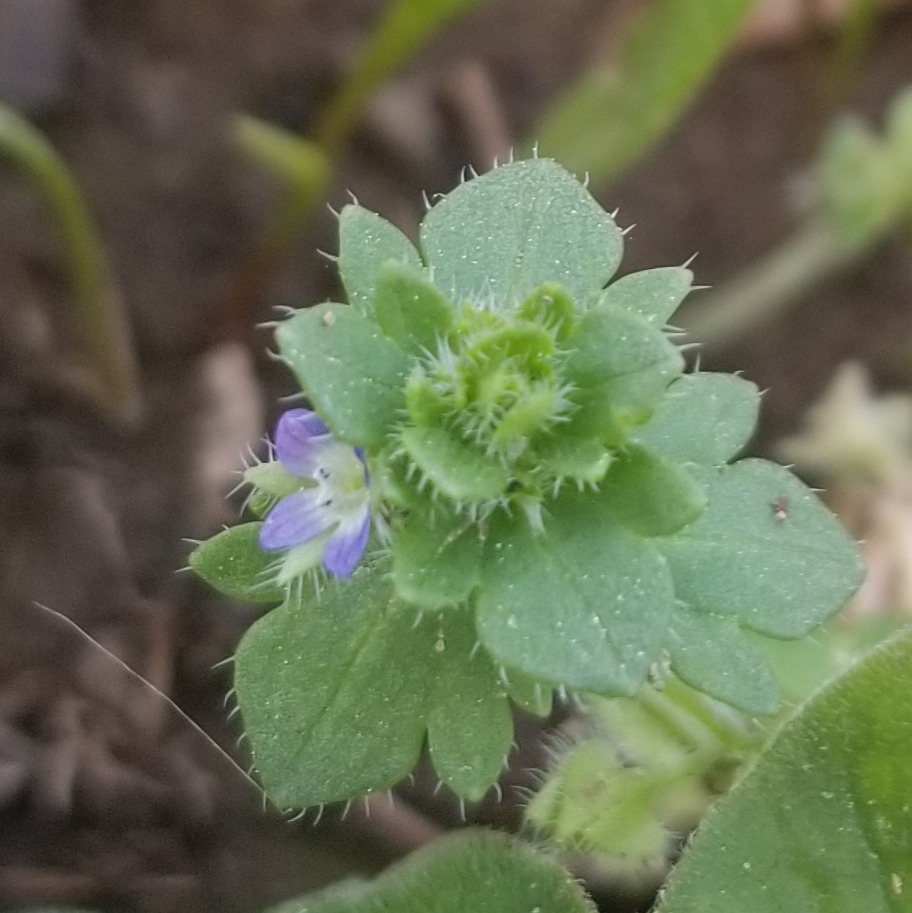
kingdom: Plantae
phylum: Tracheophyta
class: Magnoliopsida
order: Lamiales
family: Plantaginaceae
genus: Veronica
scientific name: Veronica hederifolia
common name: Ivy-leaved speedwell
